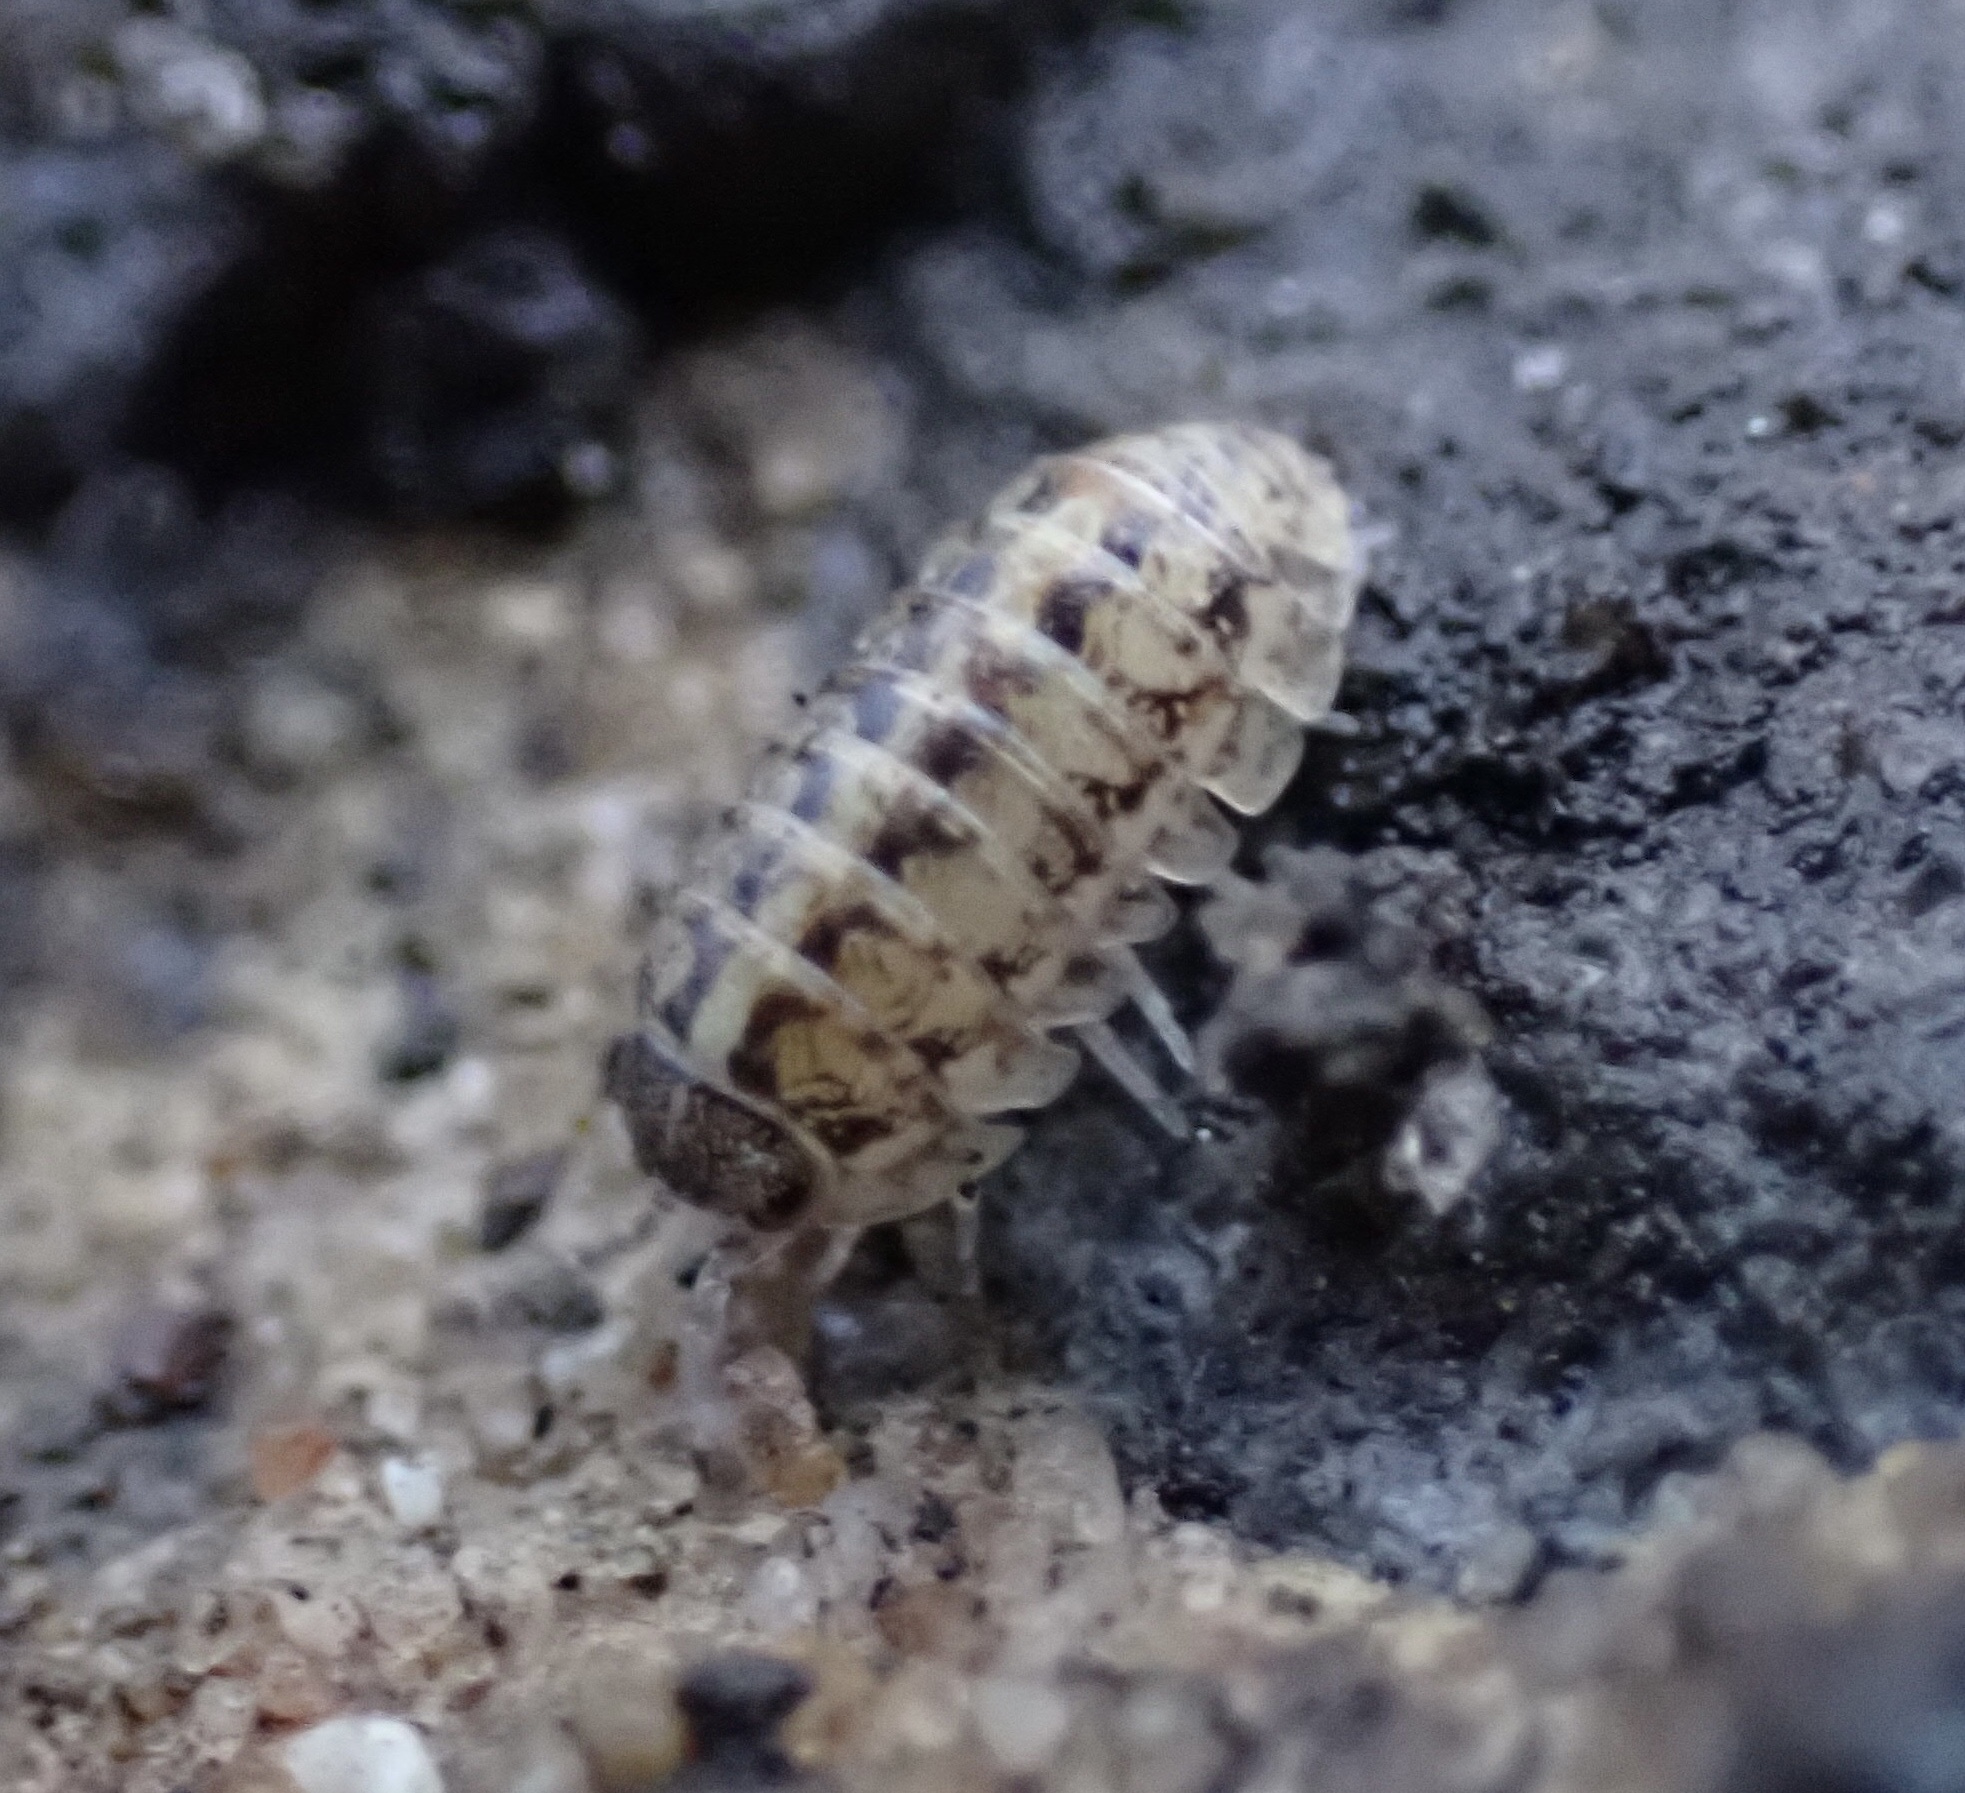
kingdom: Animalia
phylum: Arthropoda
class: Malacostraca
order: Isopoda
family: Armadillidiidae
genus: Armadillidium
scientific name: Armadillidium vulgare
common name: Common pill woodlouse
